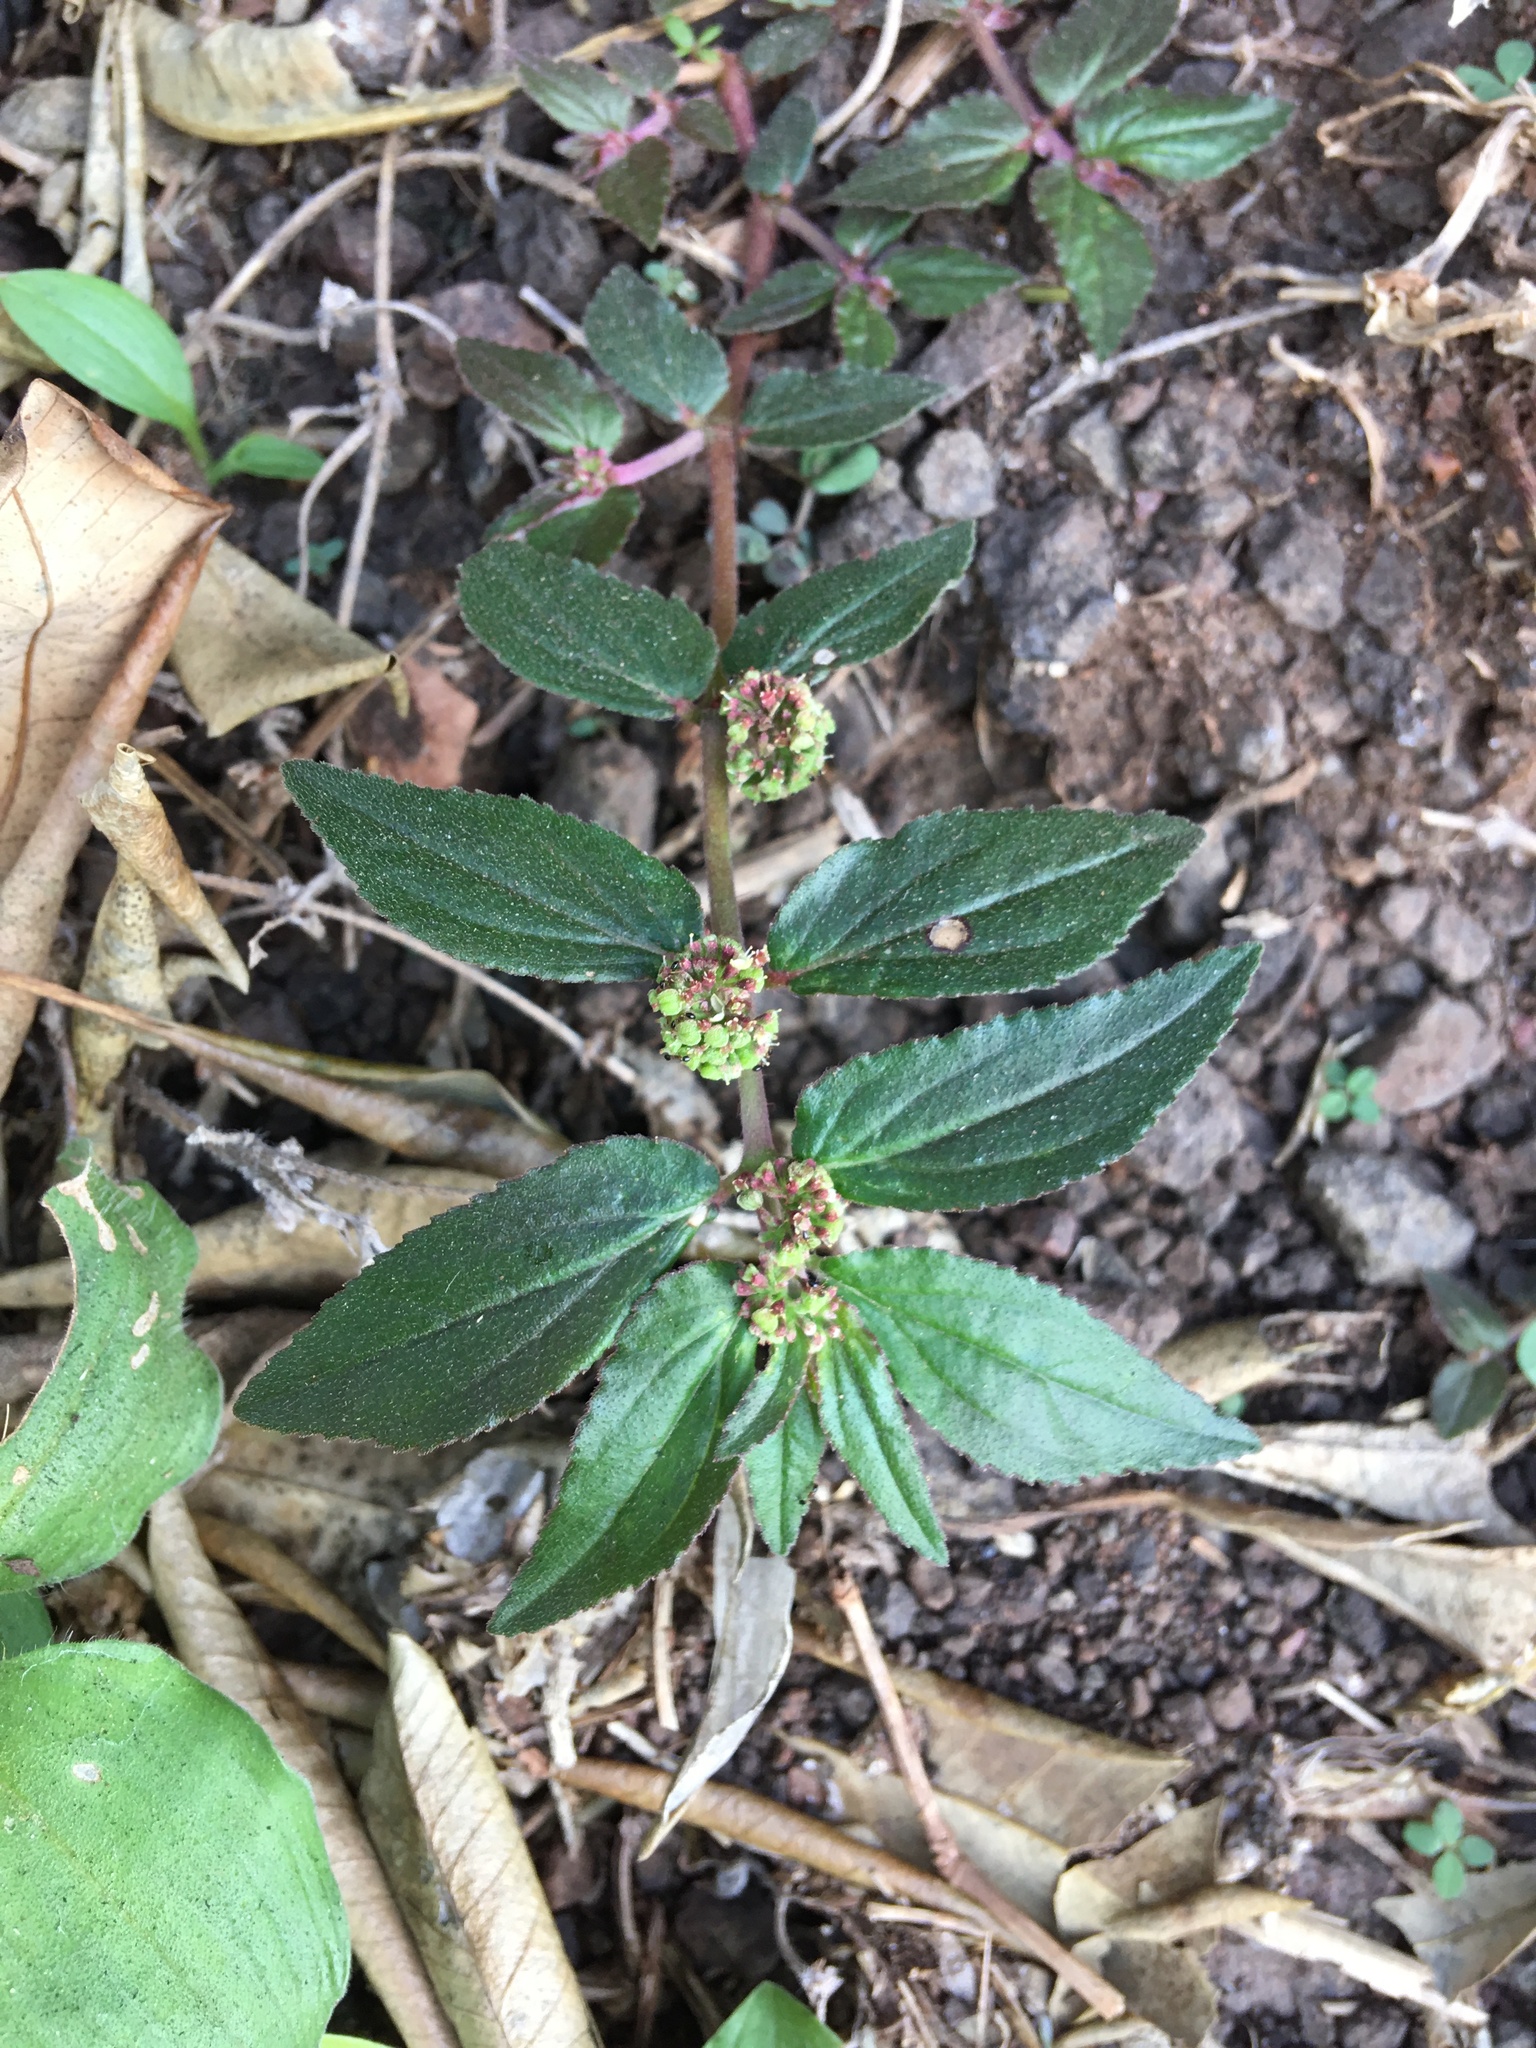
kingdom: Plantae
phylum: Tracheophyta
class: Magnoliopsida
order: Malpighiales
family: Euphorbiaceae
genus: Euphorbia
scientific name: Euphorbia hirta
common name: Pillpod sandmat
